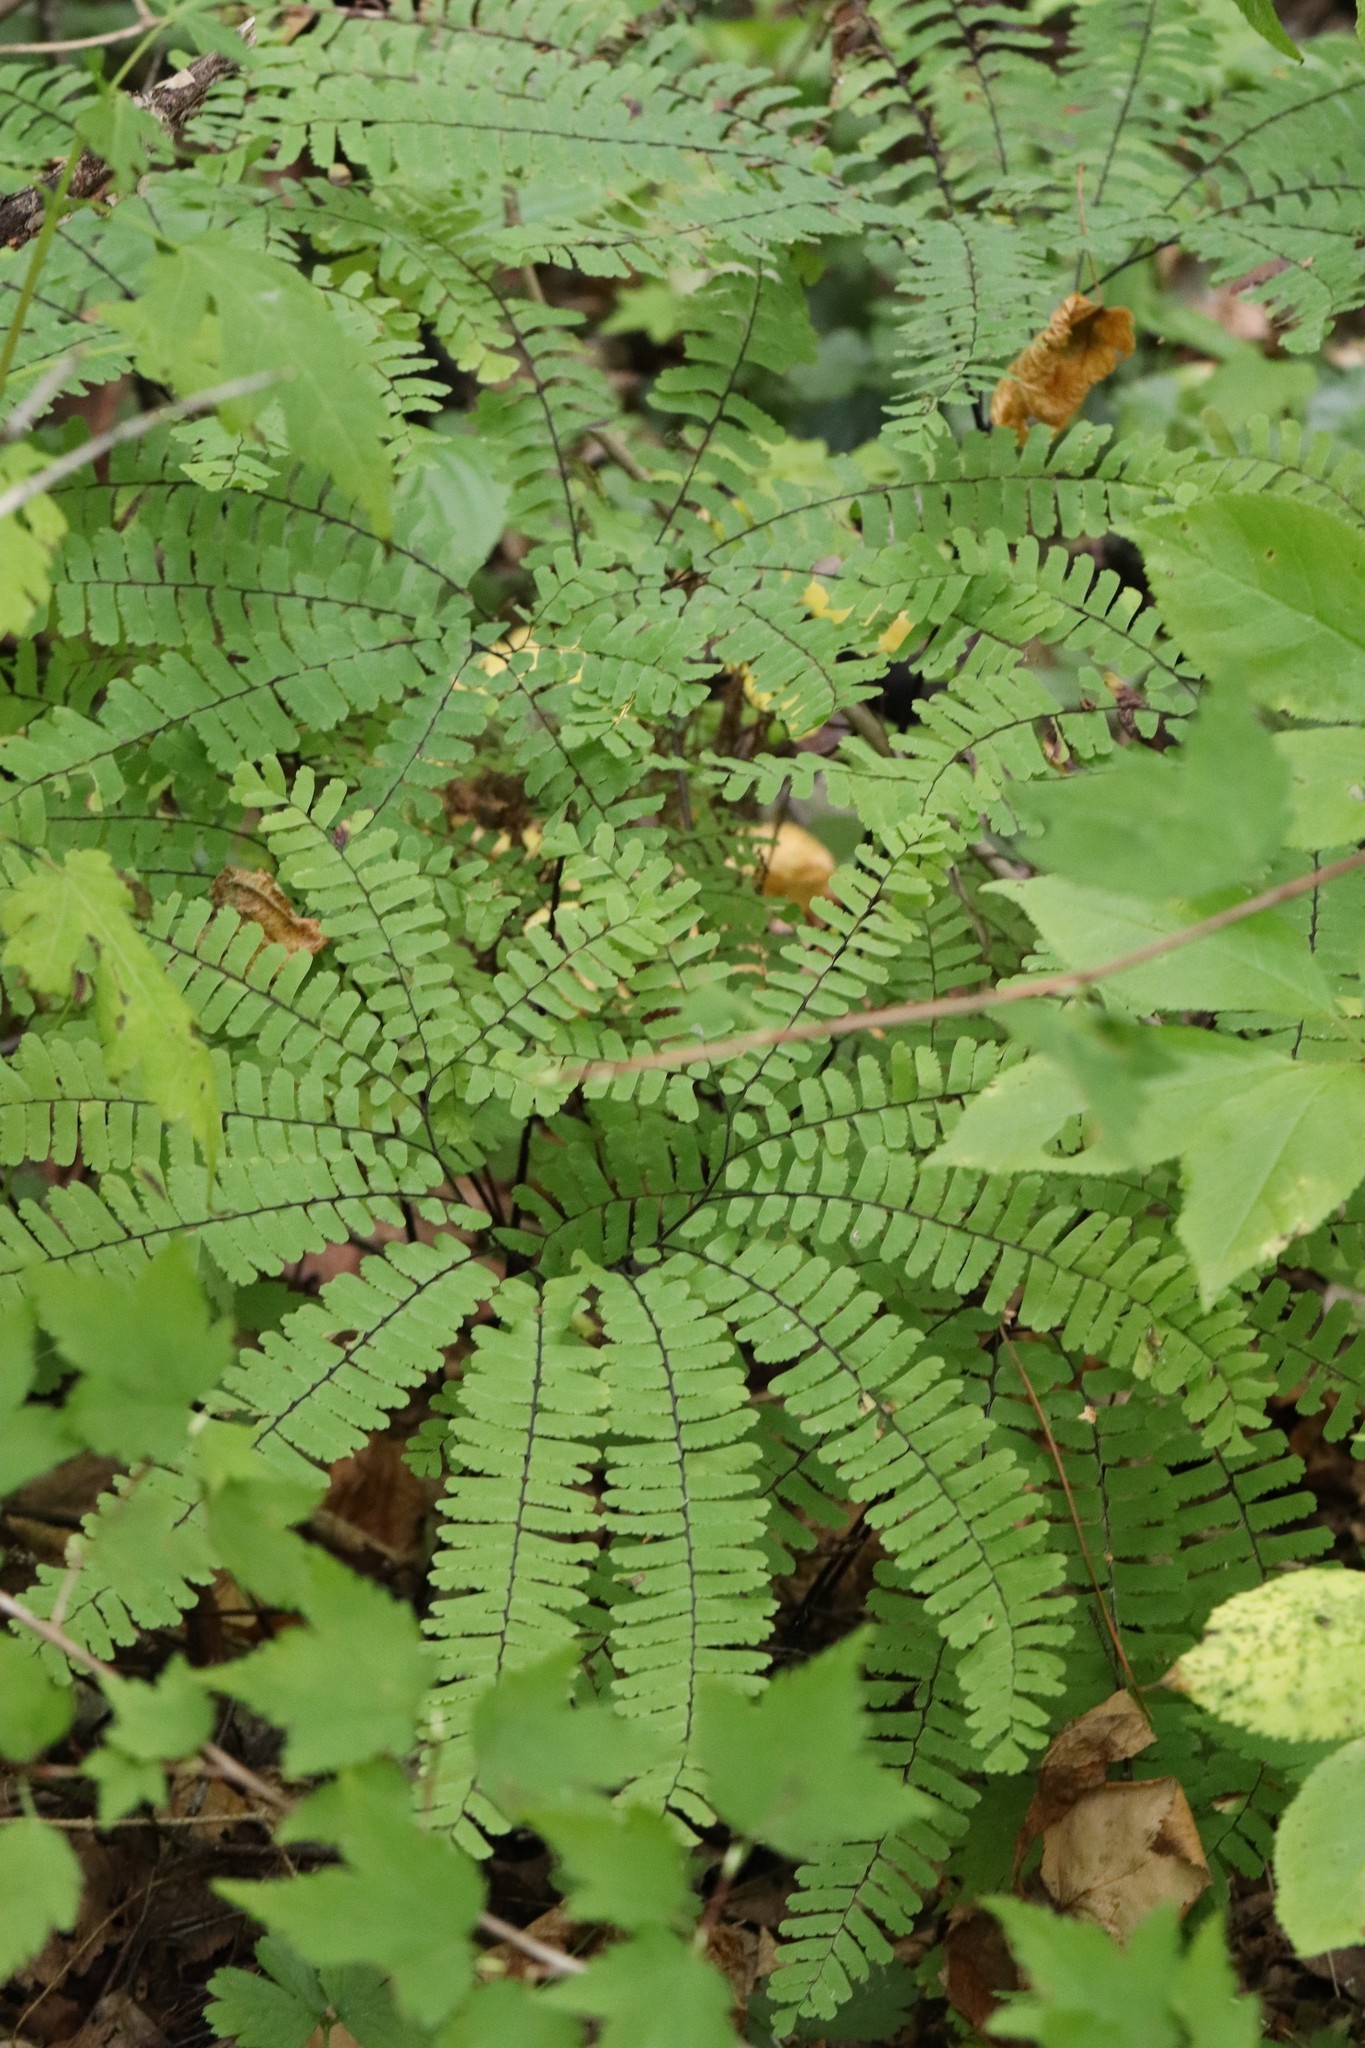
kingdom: Plantae
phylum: Tracheophyta
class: Polypodiopsida
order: Polypodiales
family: Pteridaceae
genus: Adiantum
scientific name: Adiantum pedatum
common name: Five-finger fern
